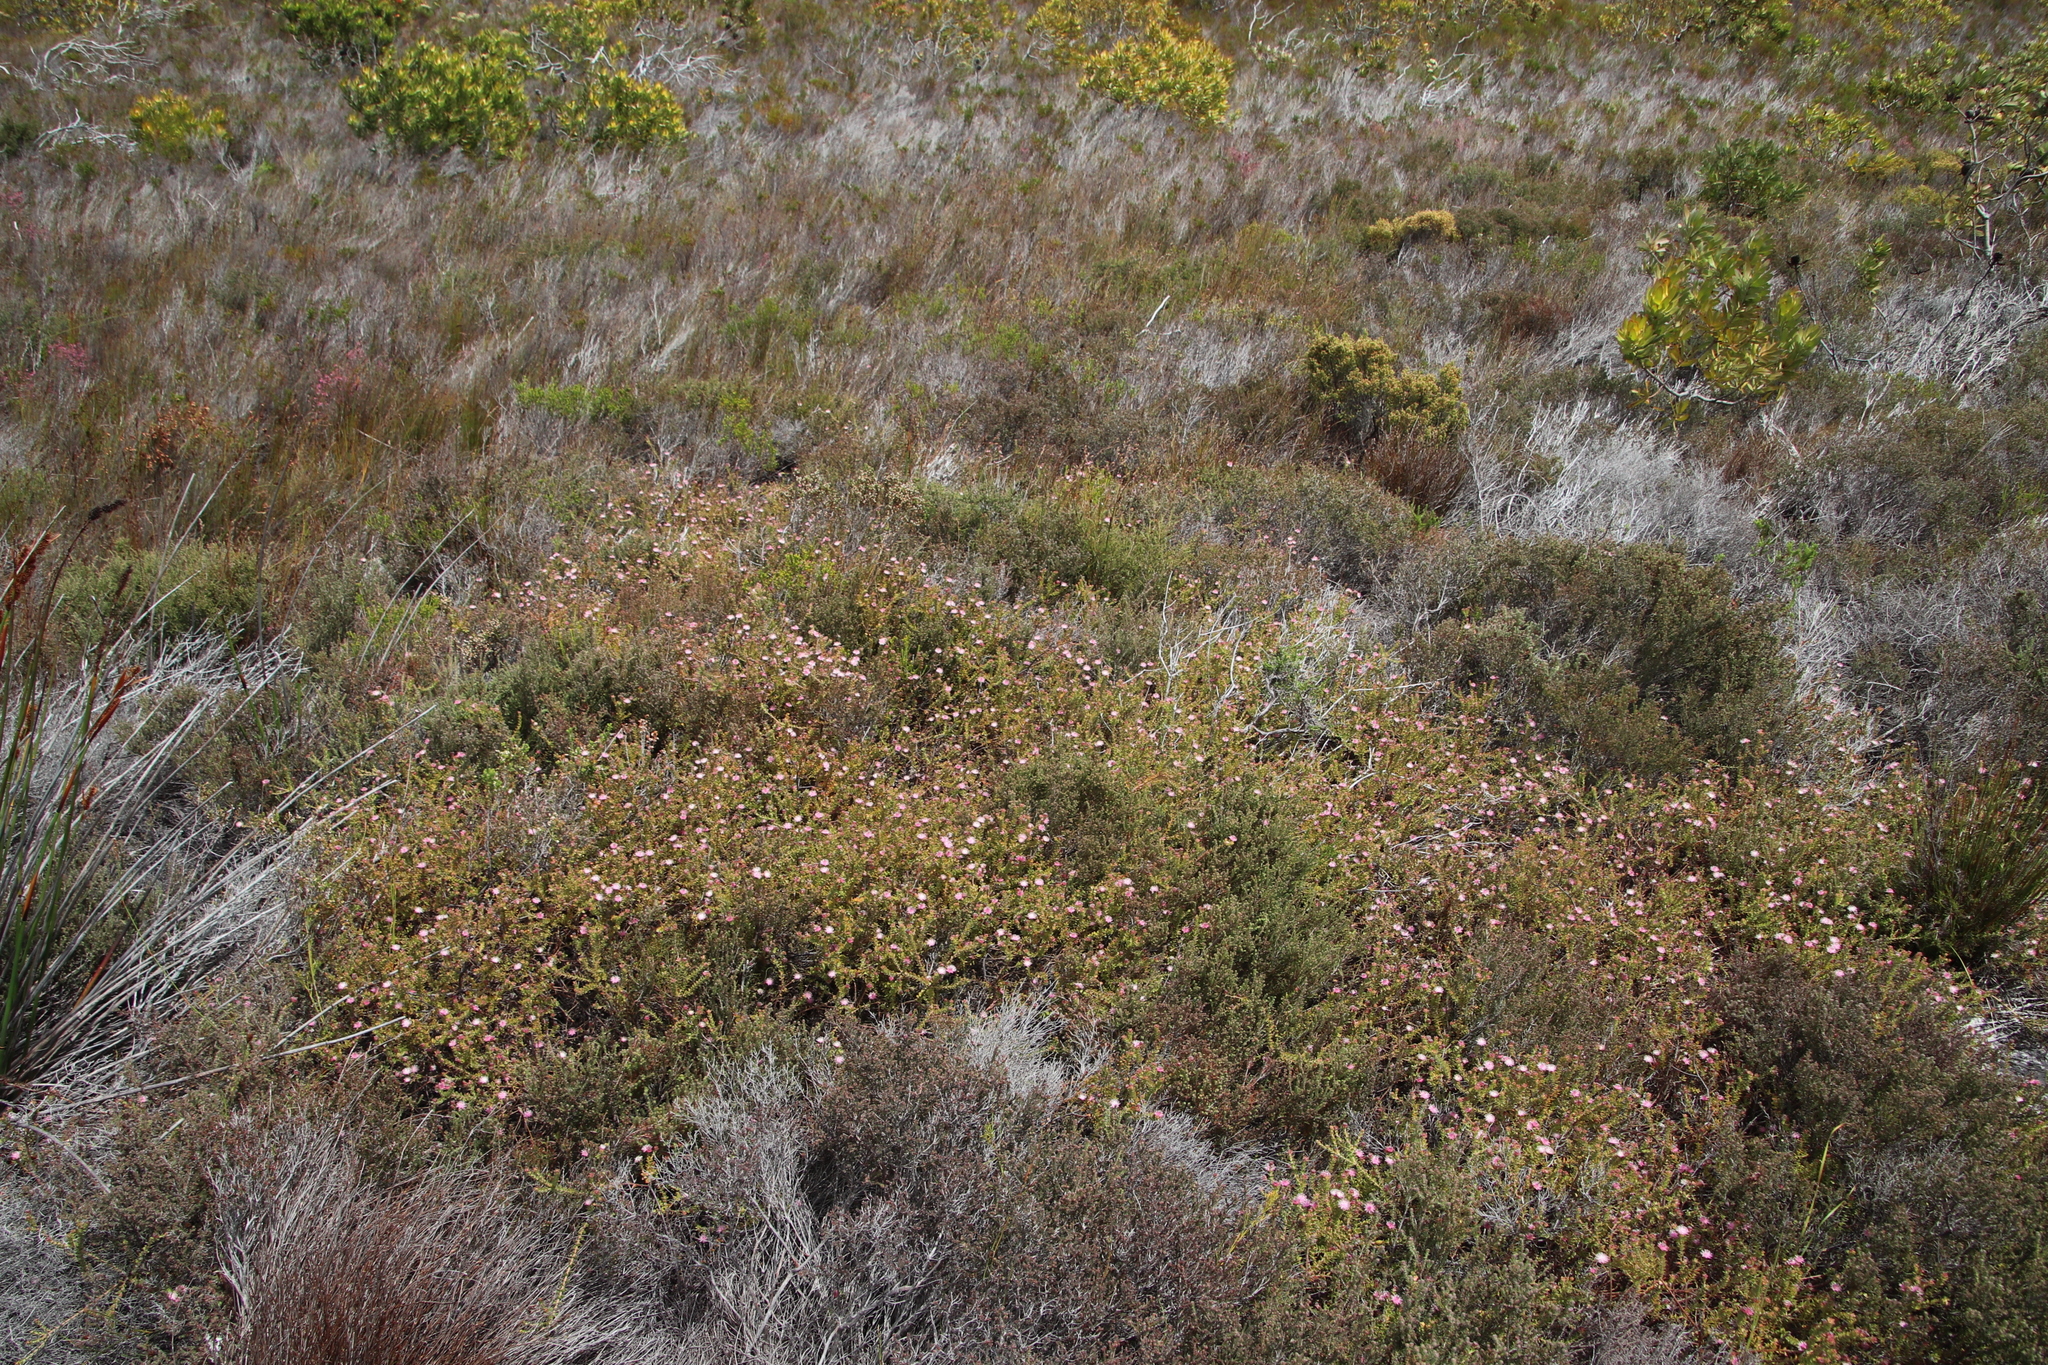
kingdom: Plantae
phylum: Tracheophyta
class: Magnoliopsida
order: Proteales
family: Proteaceae
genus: Diastella
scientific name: Diastella divaricata
